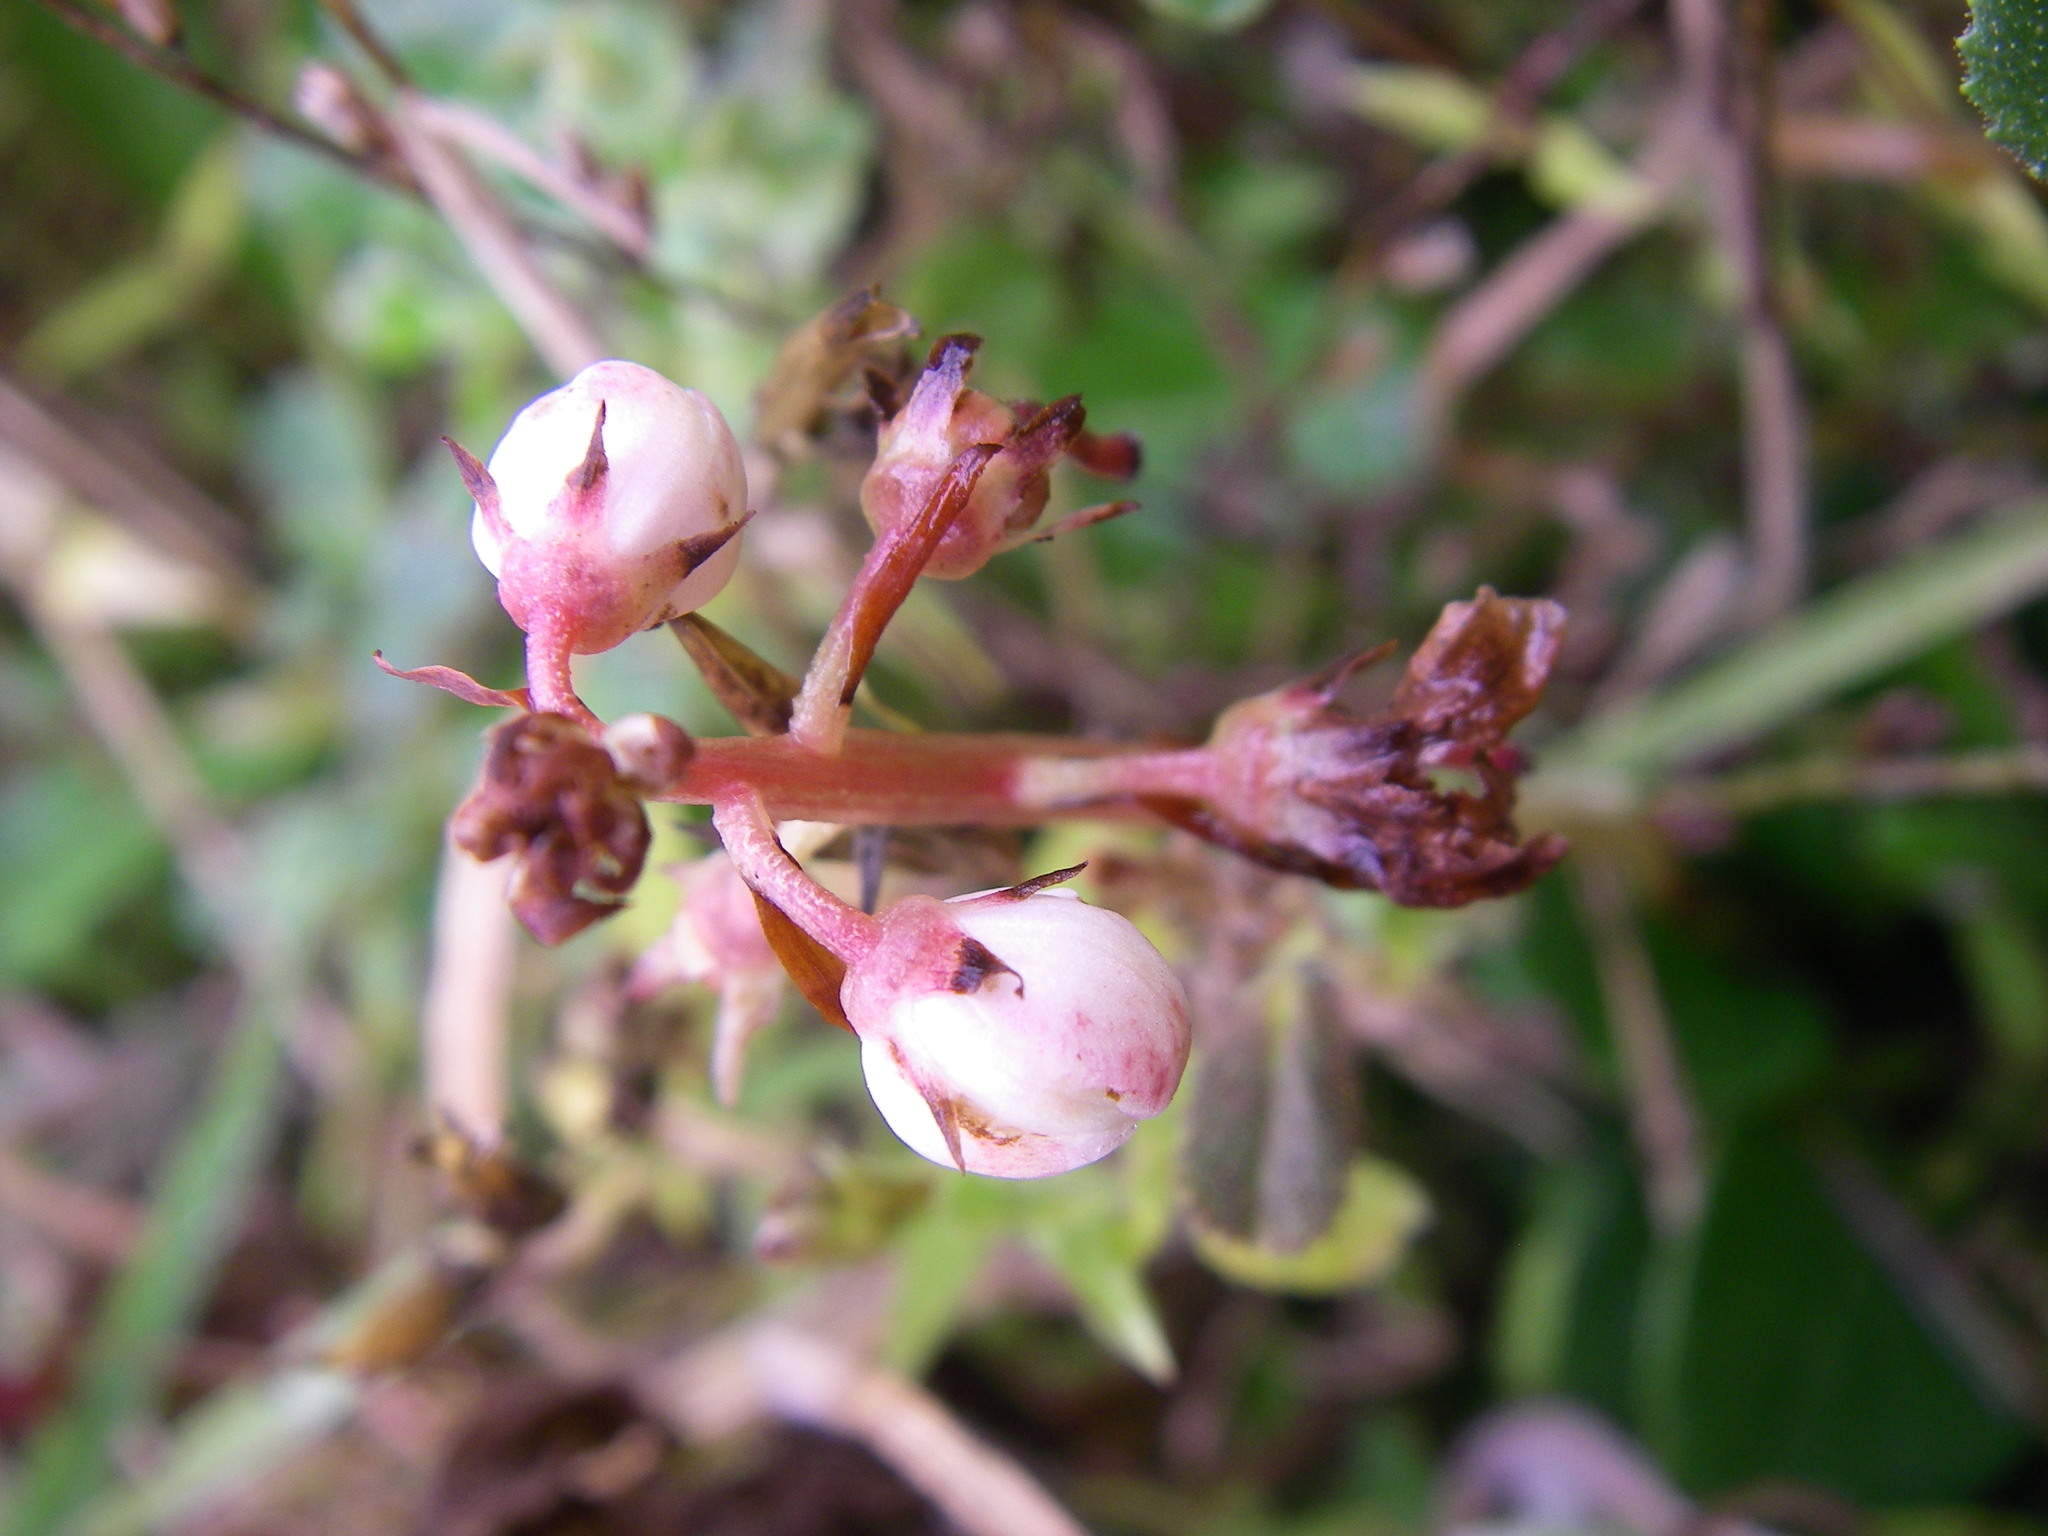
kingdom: Plantae
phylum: Tracheophyta
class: Magnoliopsida
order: Ericales
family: Ericaceae
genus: Pyrola
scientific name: Pyrola rotundifolia
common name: Round-leaved wintergreen
